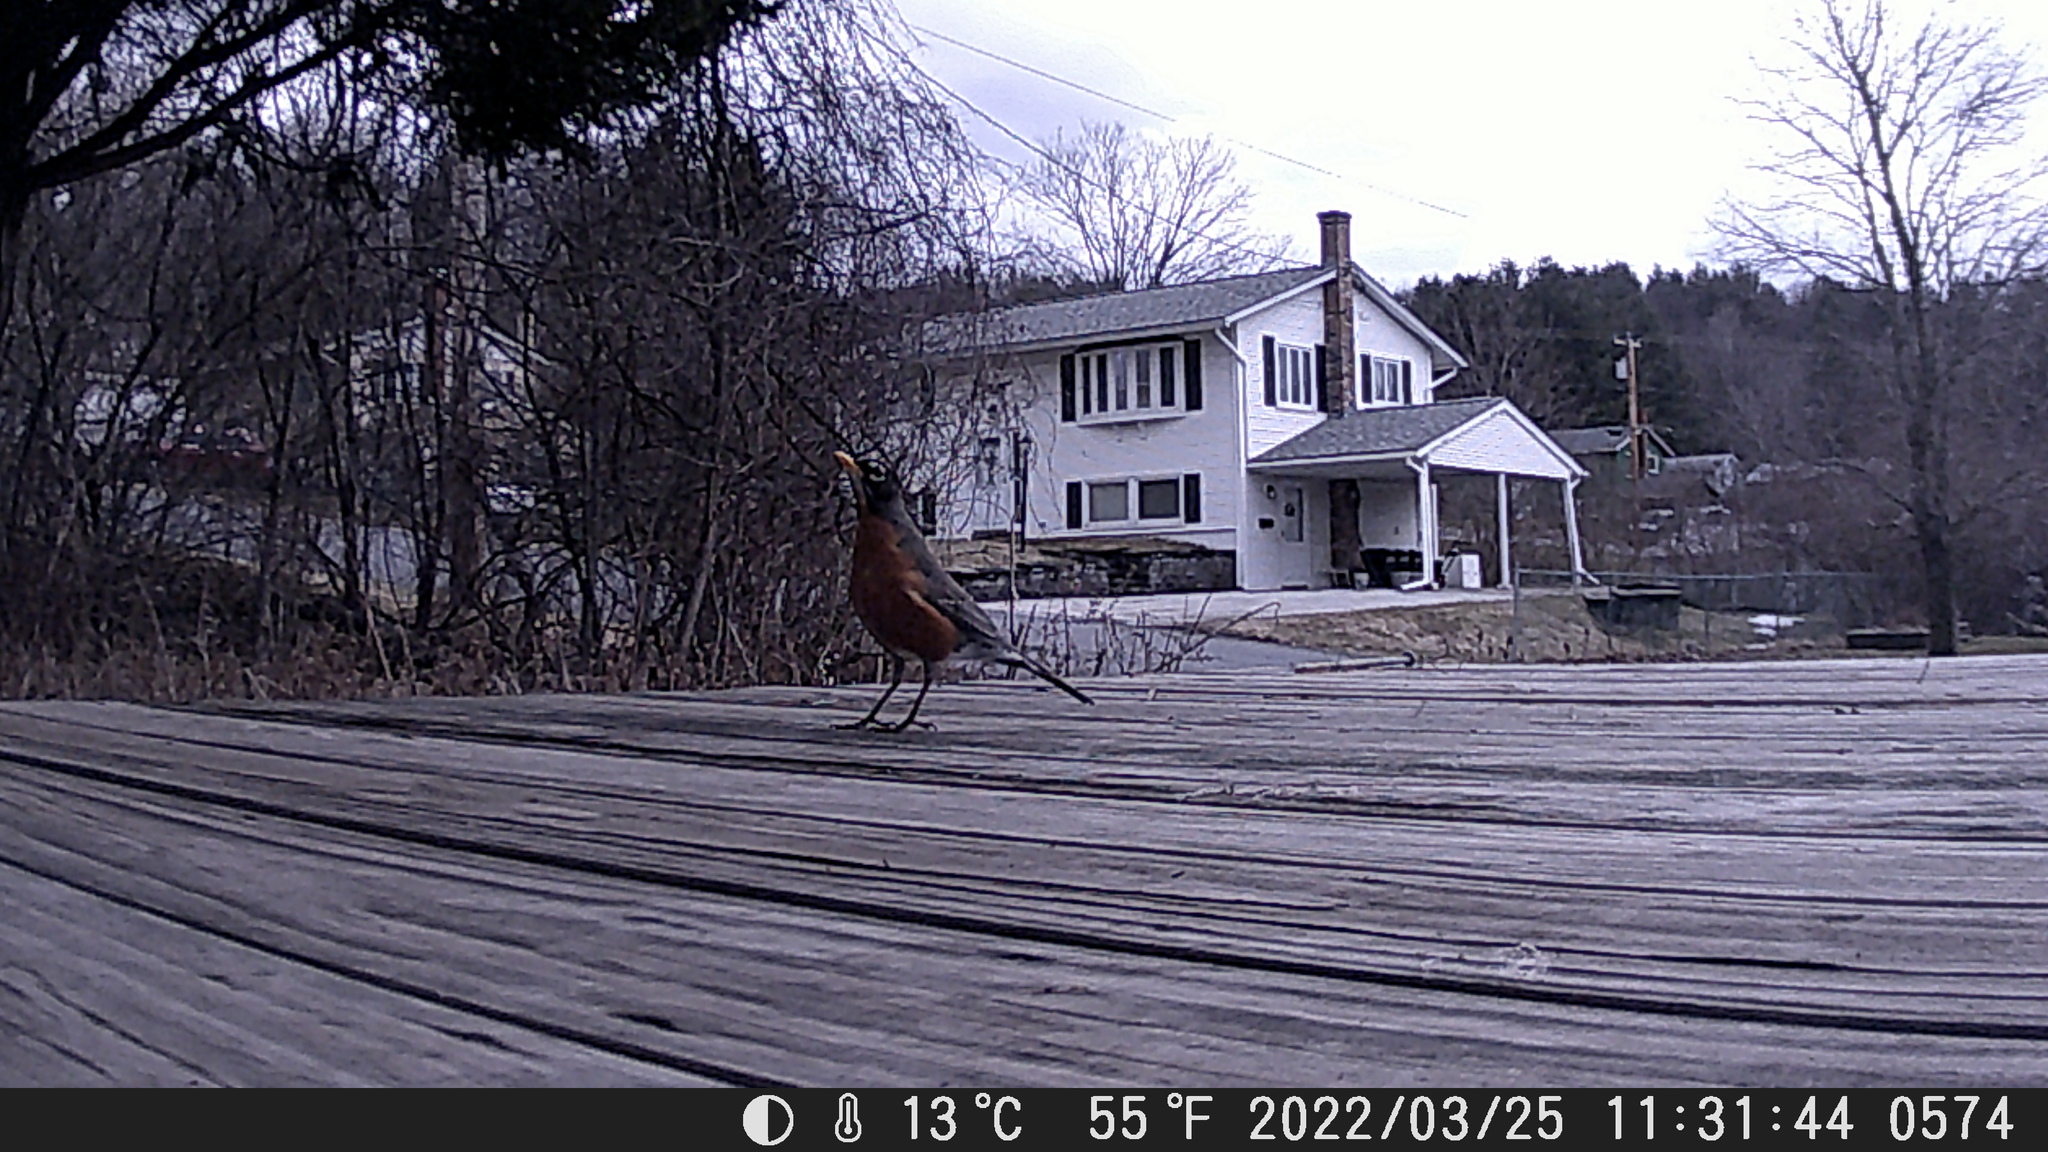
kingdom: Animalia
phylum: Chordata
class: Aves
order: Passeriformes
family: Turdidae
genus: Turdus
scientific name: Turdus migratorius
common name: American robin
